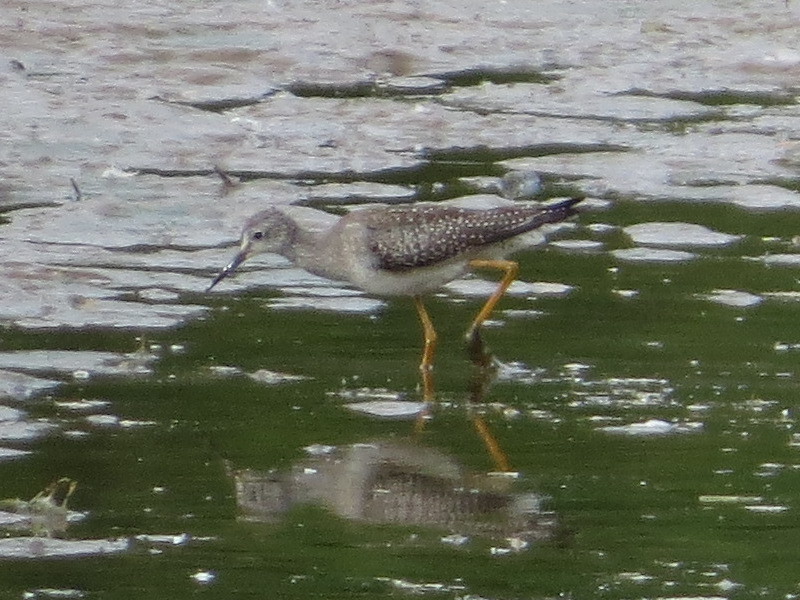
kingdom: Animalia
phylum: Chordata
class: Aves
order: Charadriiformes
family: Scolopacidae
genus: Tringa
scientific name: Tringa flavipes
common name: Lesser yellowlegs
